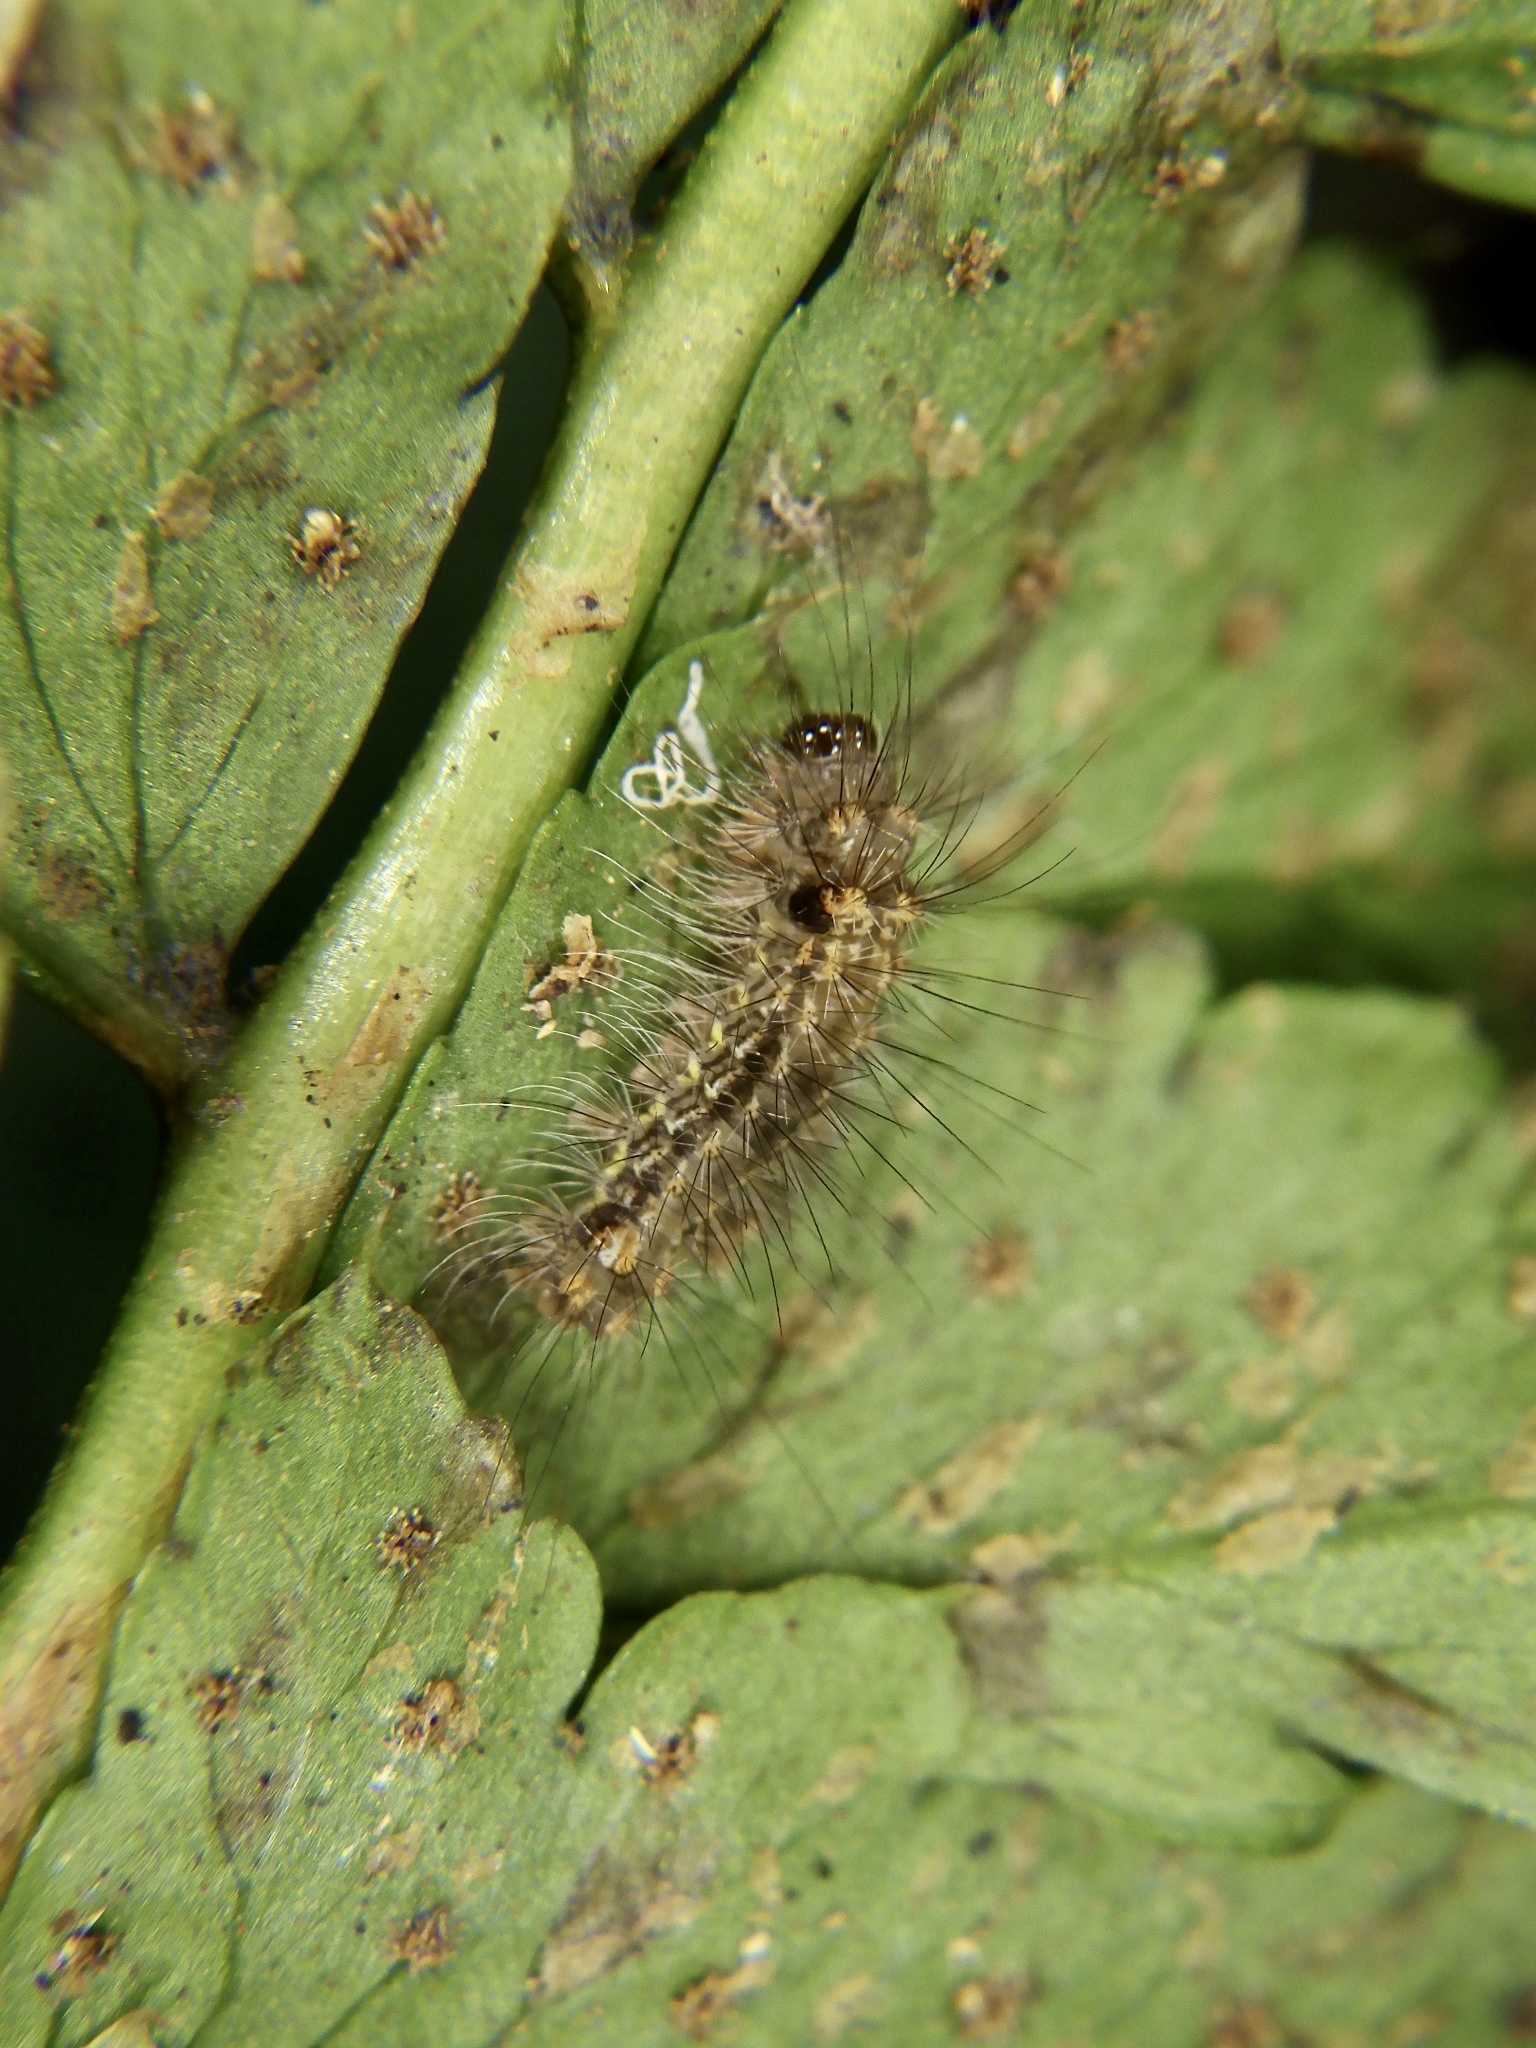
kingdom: Animalia
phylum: Arthropoda
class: Insecta
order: Lepidoptera
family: Noctuidae
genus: Acronicta
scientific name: Acronicta rumicis
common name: Knot grass
